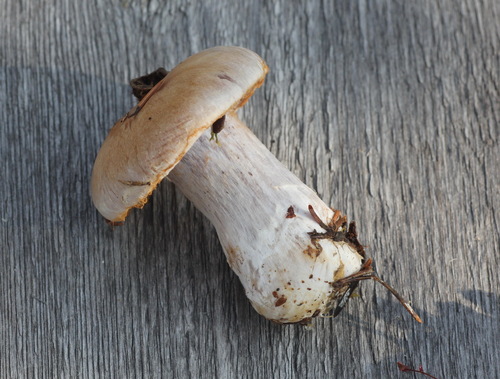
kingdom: Fungi
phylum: Basidiomycota
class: Agaricomycetes
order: Agaricales
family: Cortinariaceae
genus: Cortinarius
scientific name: Cortinarius quarciticus
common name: Quartz webcap
